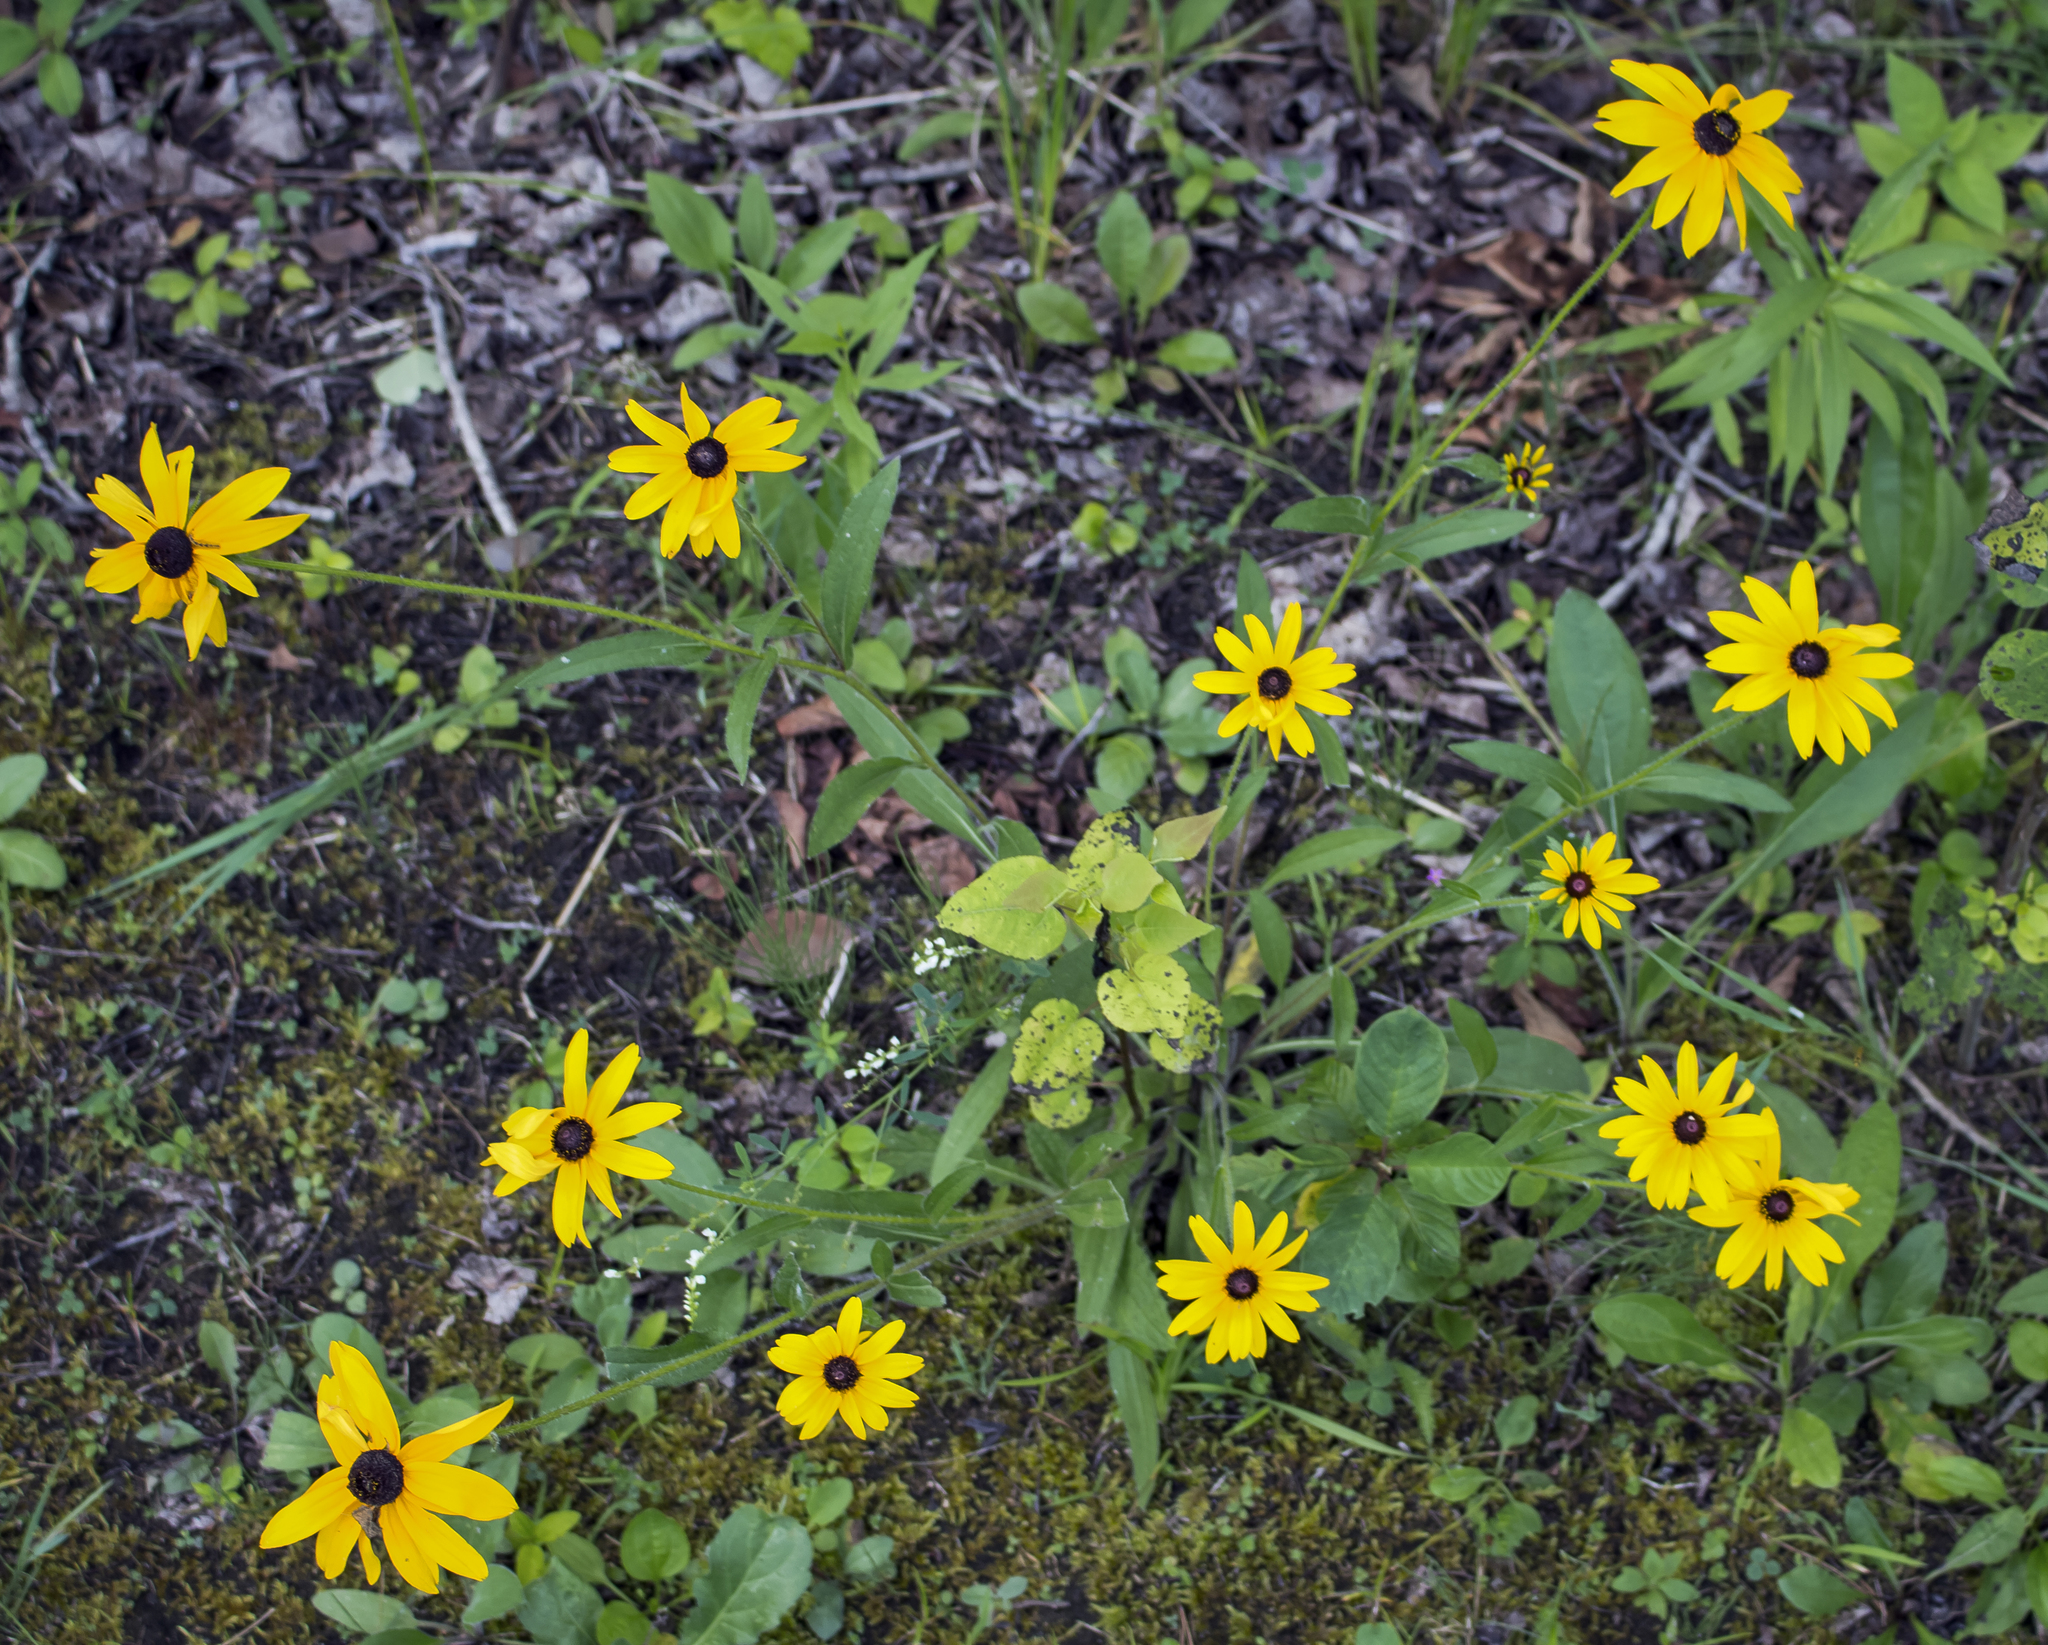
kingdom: Plantae
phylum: Tracheophyta
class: Magnoliopsida
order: Asterales
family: Asteraceae
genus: Rudbeckia
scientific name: Rudbeckia hirta
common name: Black-eyed-susan
